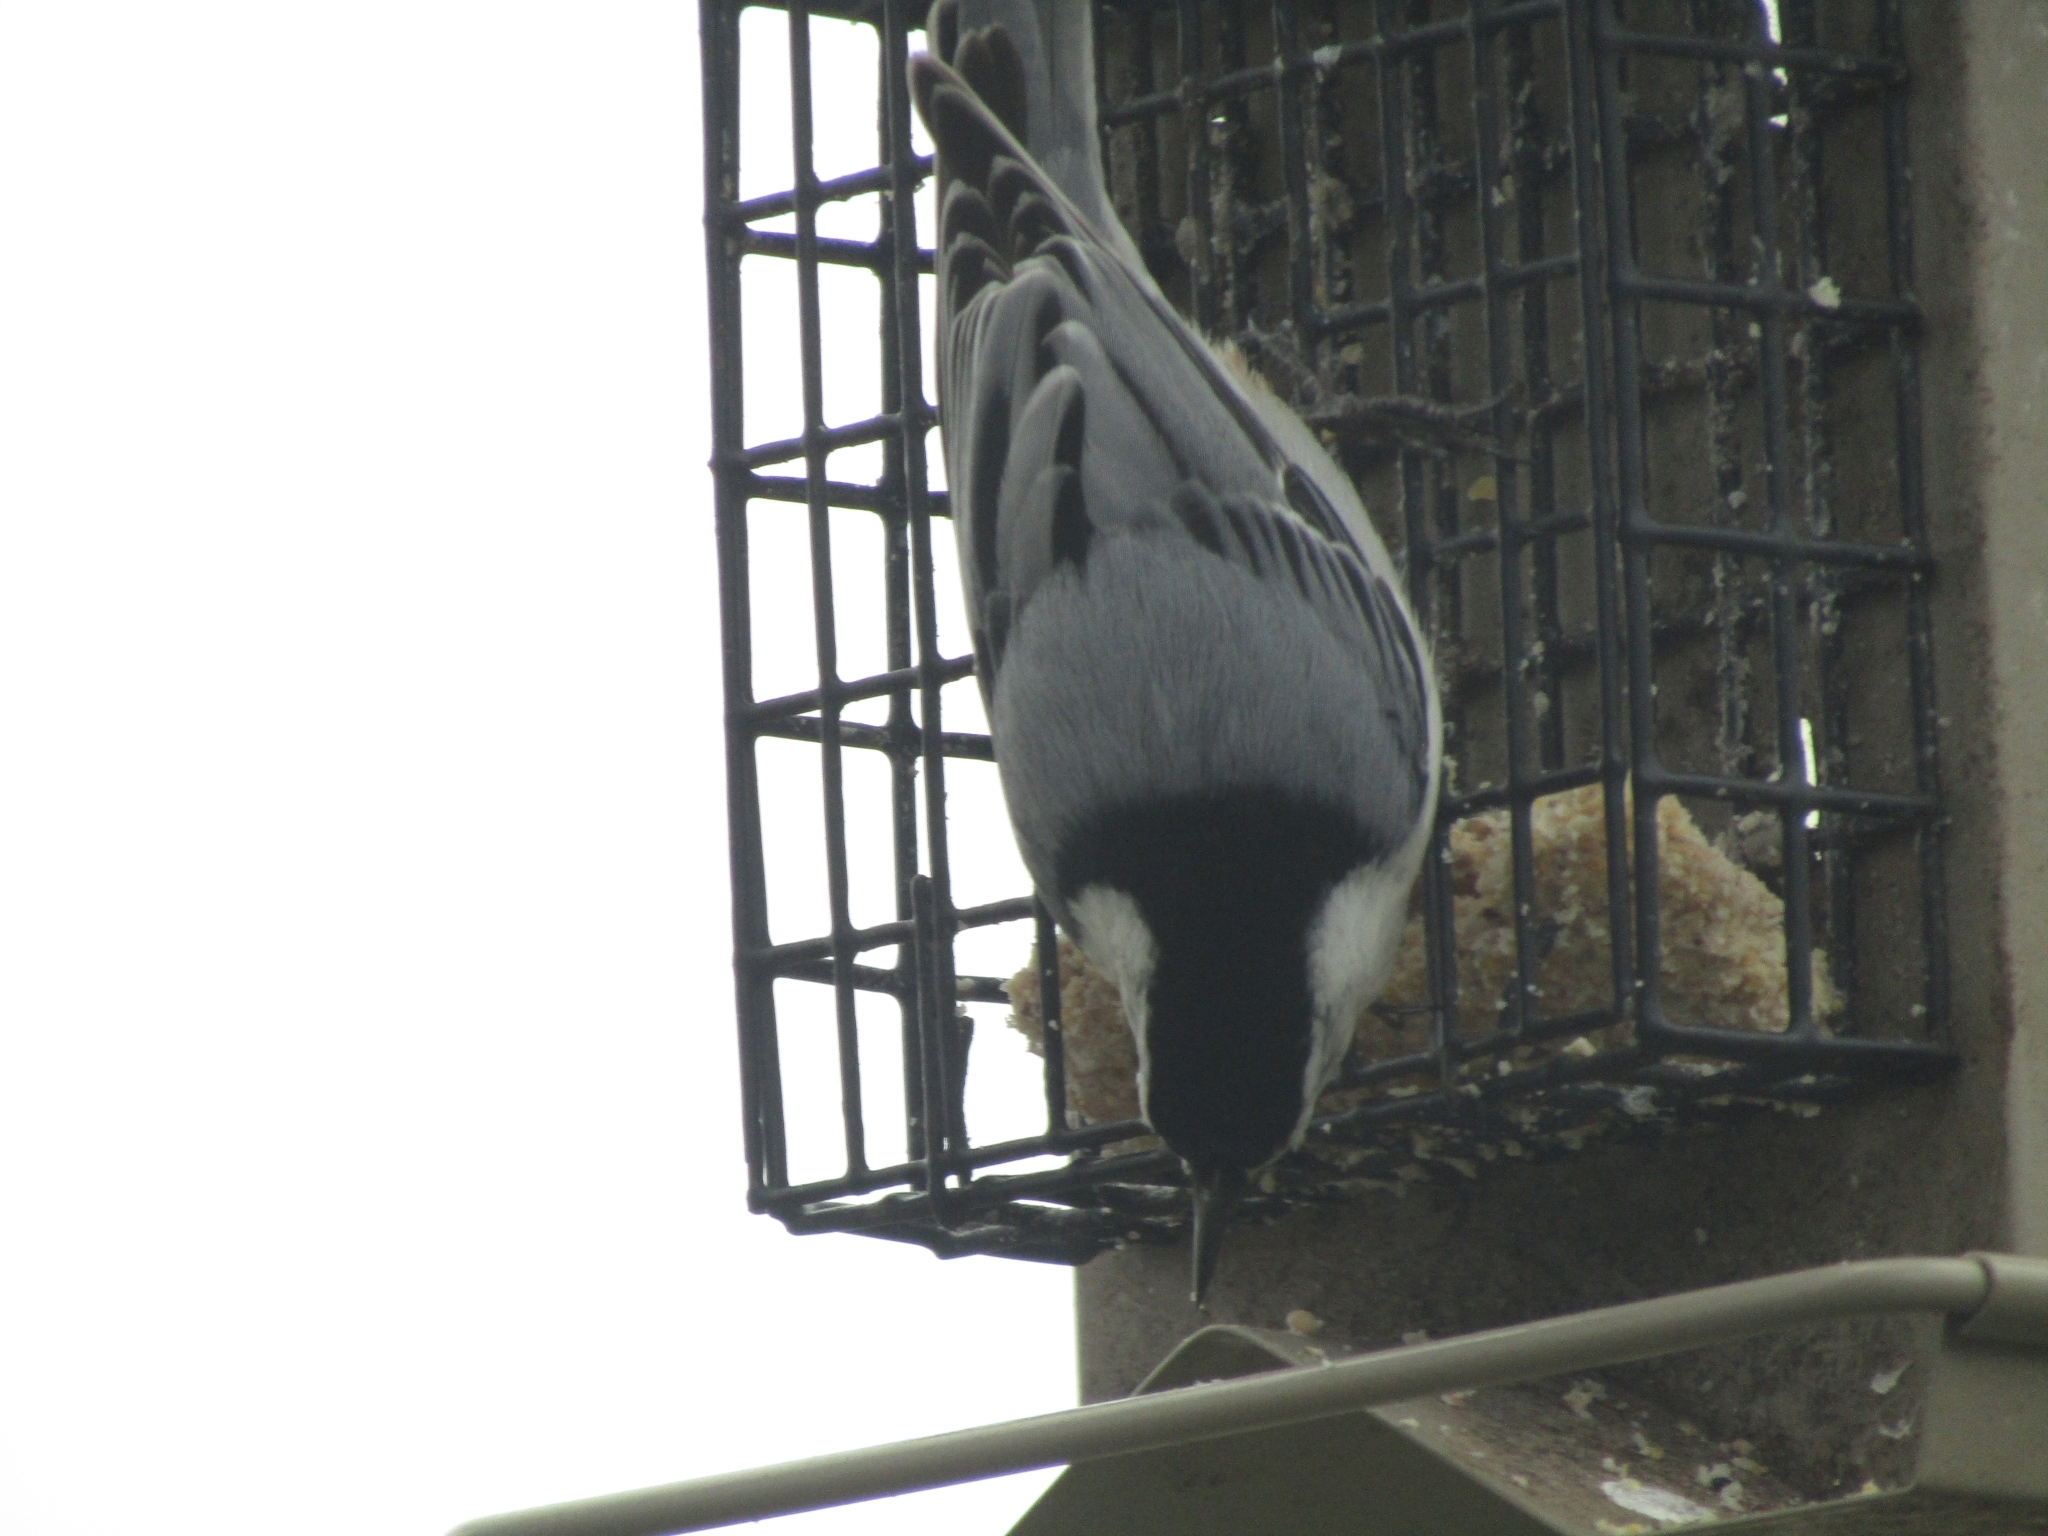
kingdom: Animalia
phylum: Chordata
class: Aves
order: Passeriformes
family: Sittidae
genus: Sitta
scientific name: Sitta carolinensis
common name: White-breasted nuthatch
